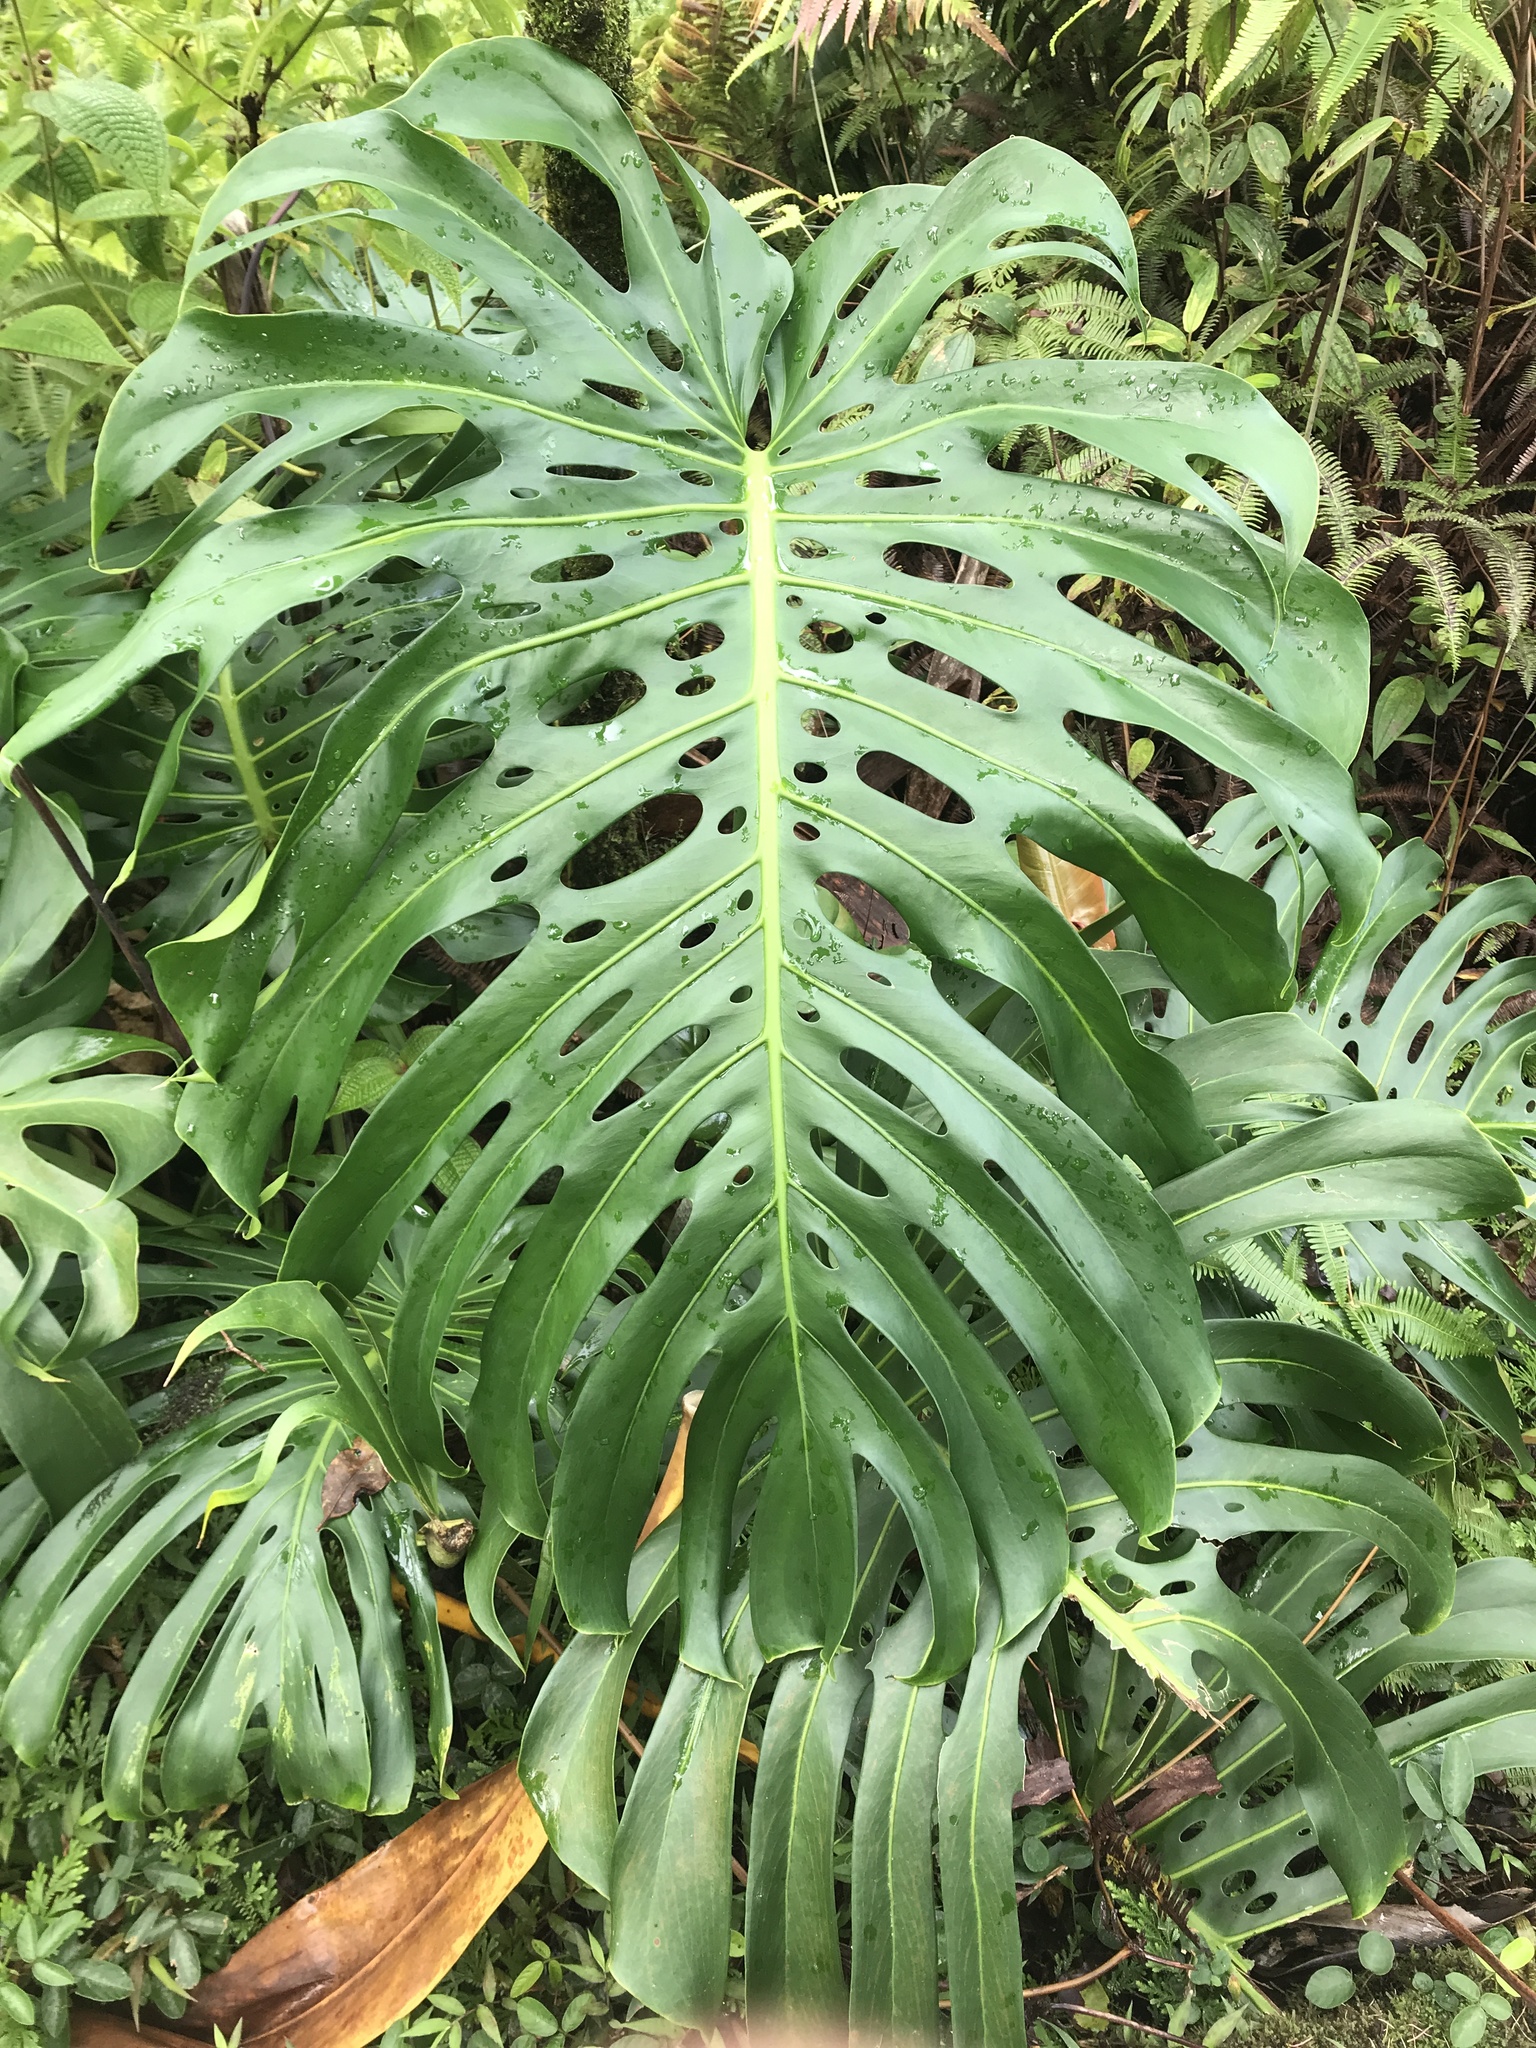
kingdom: Plantae
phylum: Tracheophyta
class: Liliopsida
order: Alismatales
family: Araceae
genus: Monstera
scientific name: Monstera deliciosa
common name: Cut-leaf-philodendron
